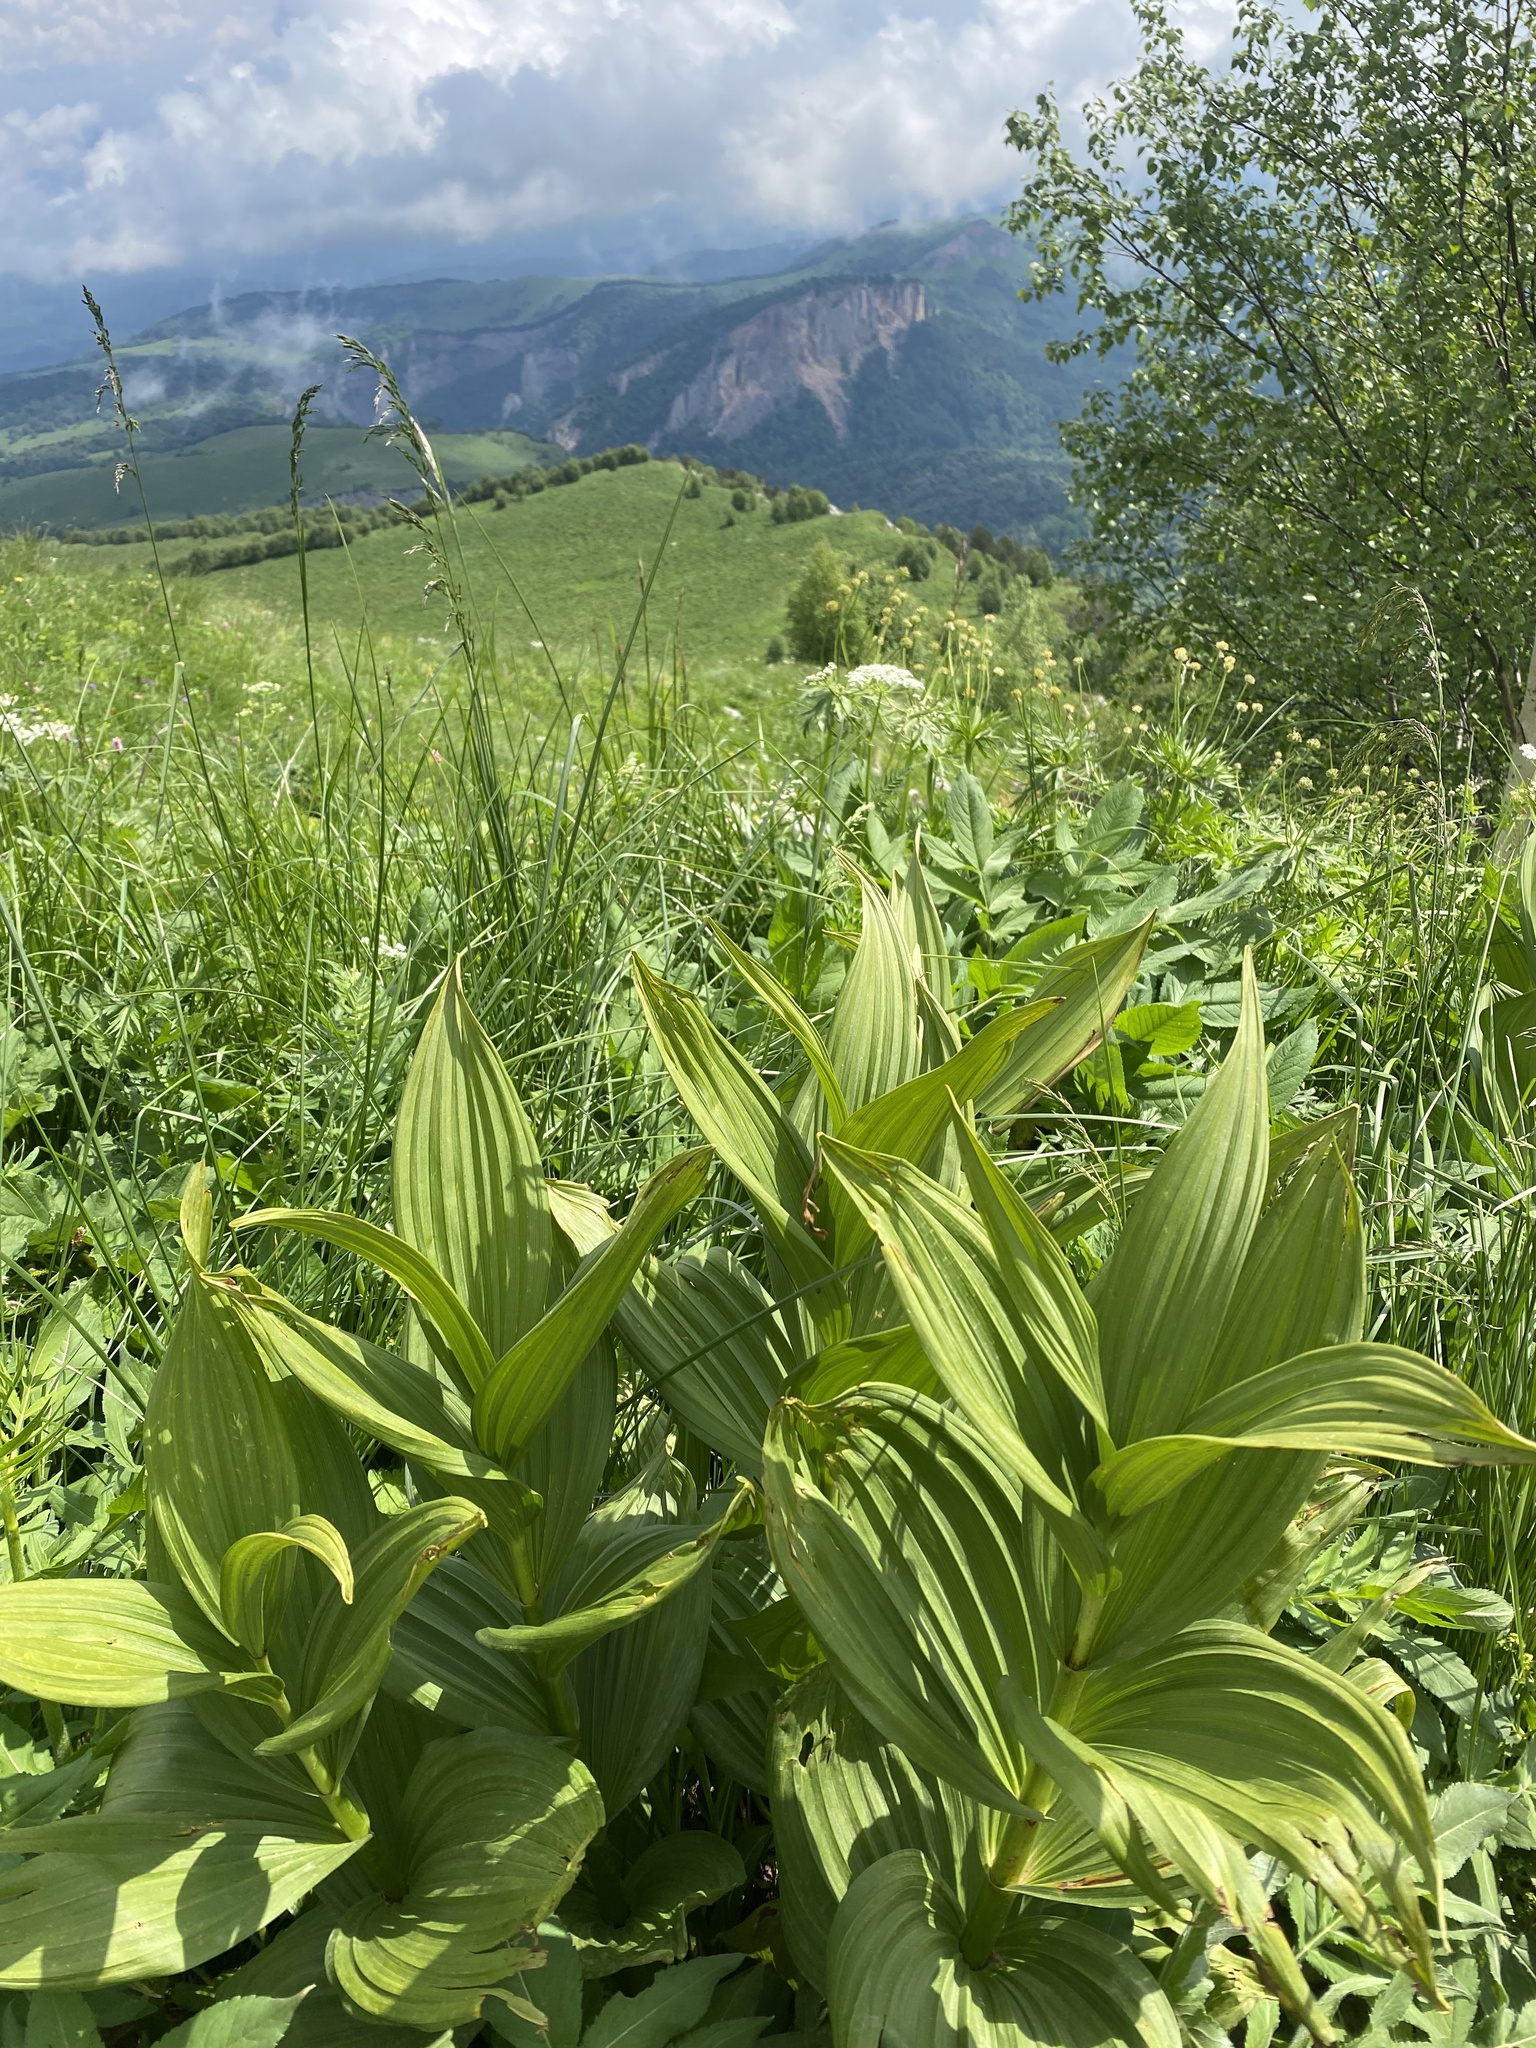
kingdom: Plantae
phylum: Tracheophyta
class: Liliopsida
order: Liliales
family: Melanthiaceae
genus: Veratrum
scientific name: Veratrum lobelianum
